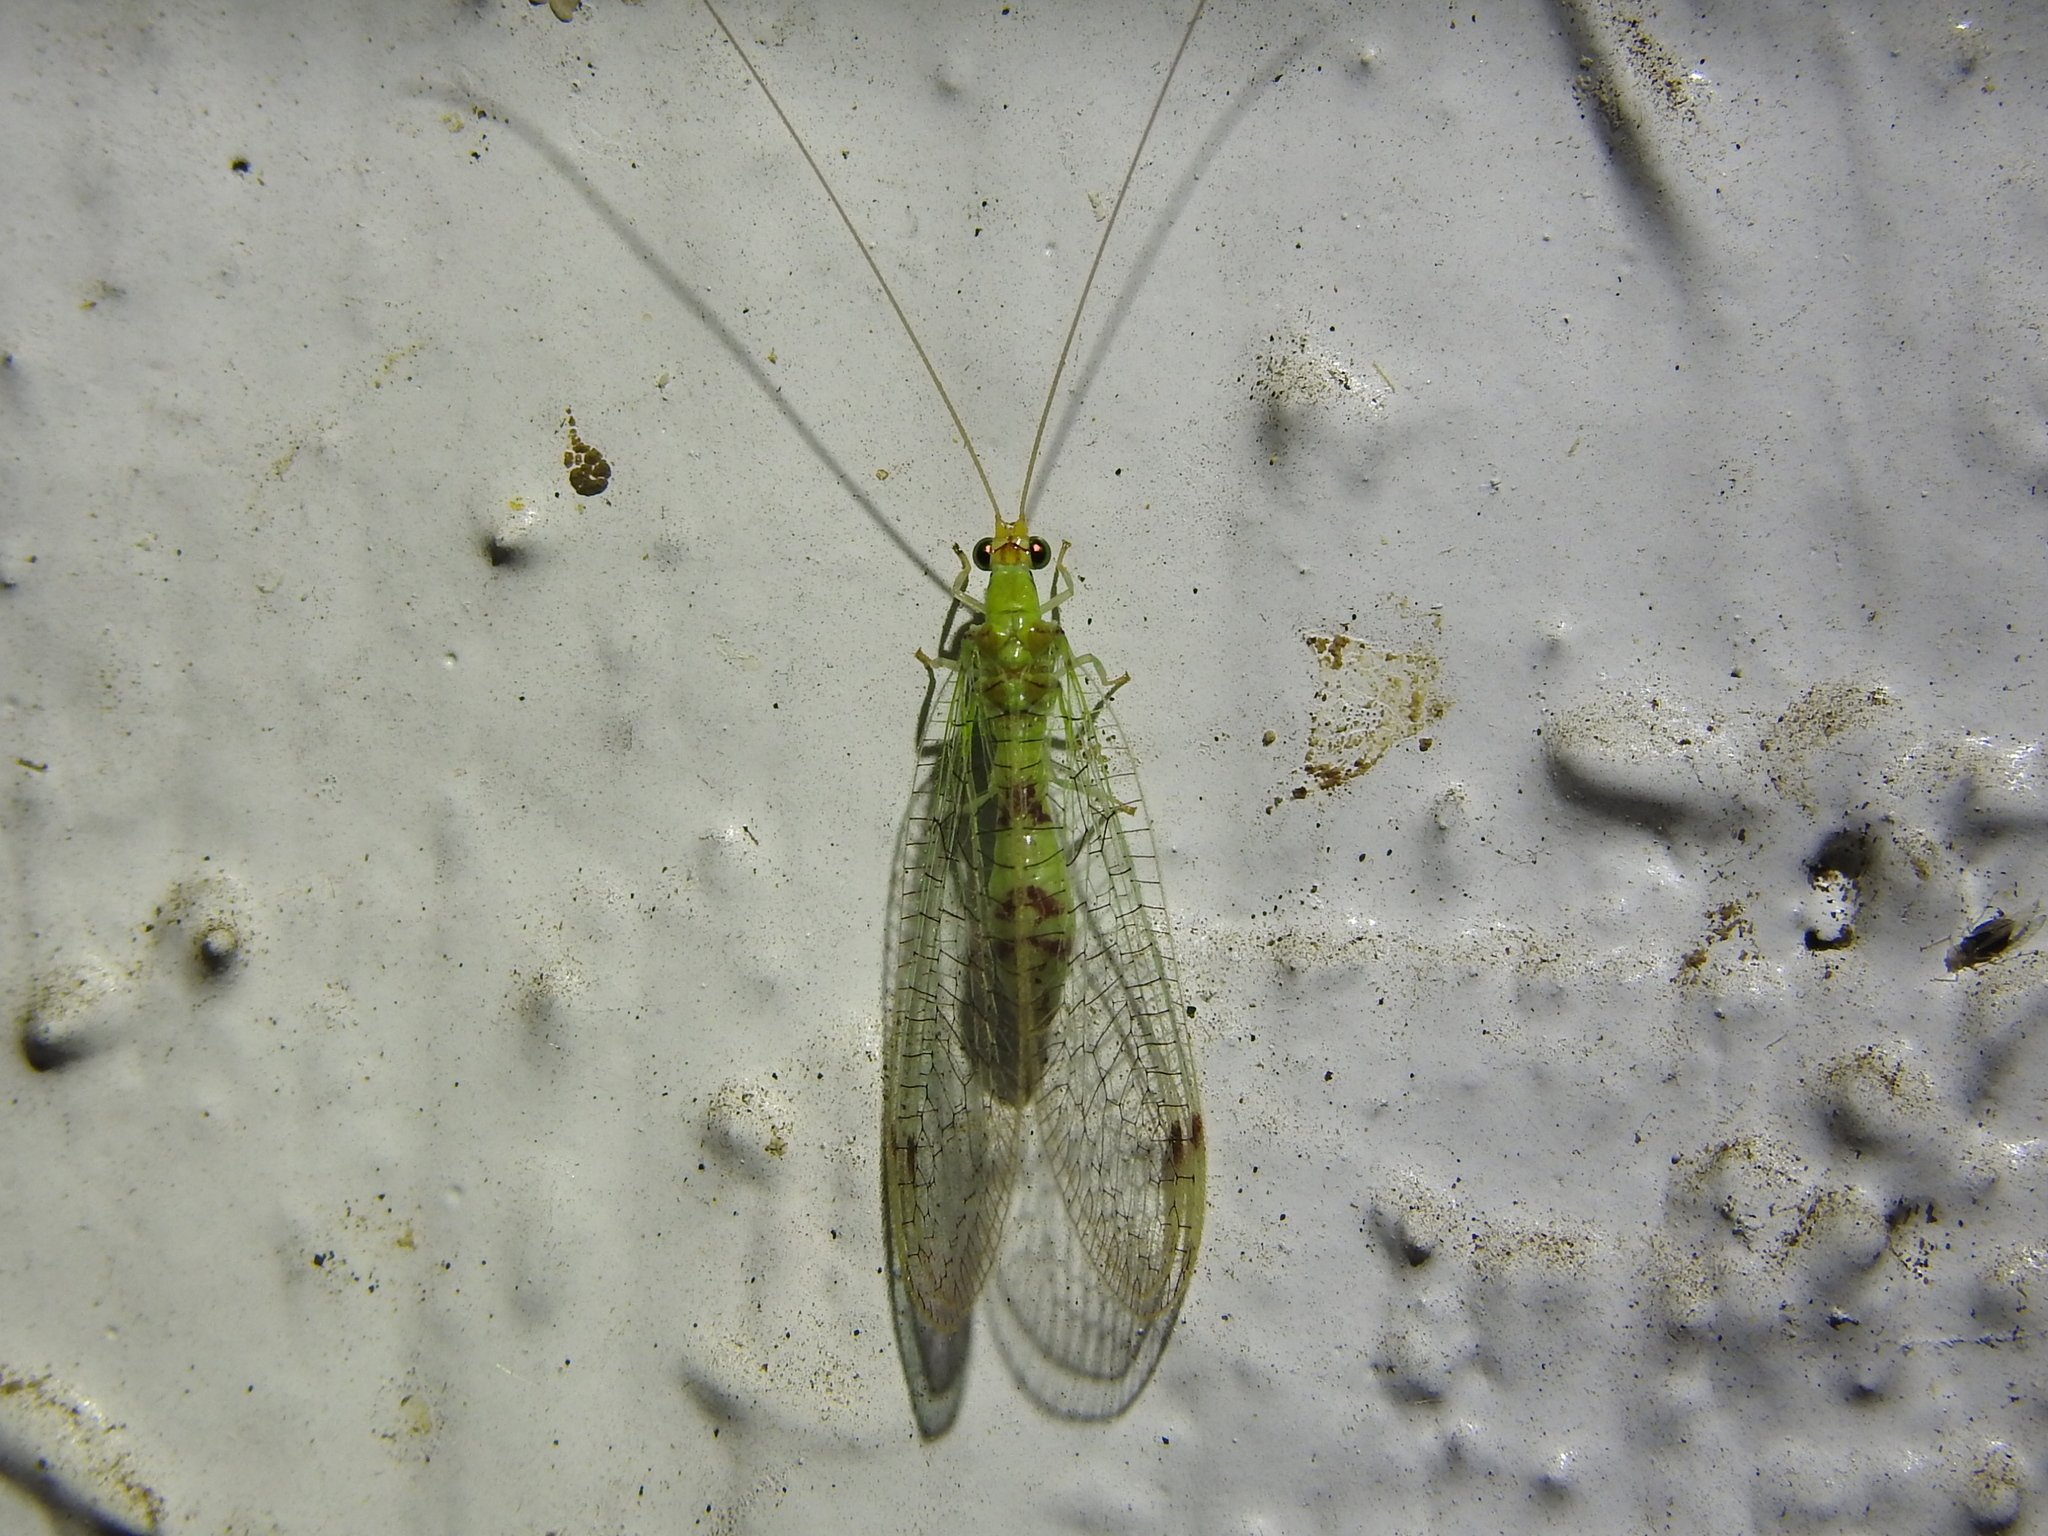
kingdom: Animalia
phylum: Arthropoda
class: Insecta
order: Neuroptera
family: Chrysopidae
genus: Leucochrysa
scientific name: Leucochrysa americana
